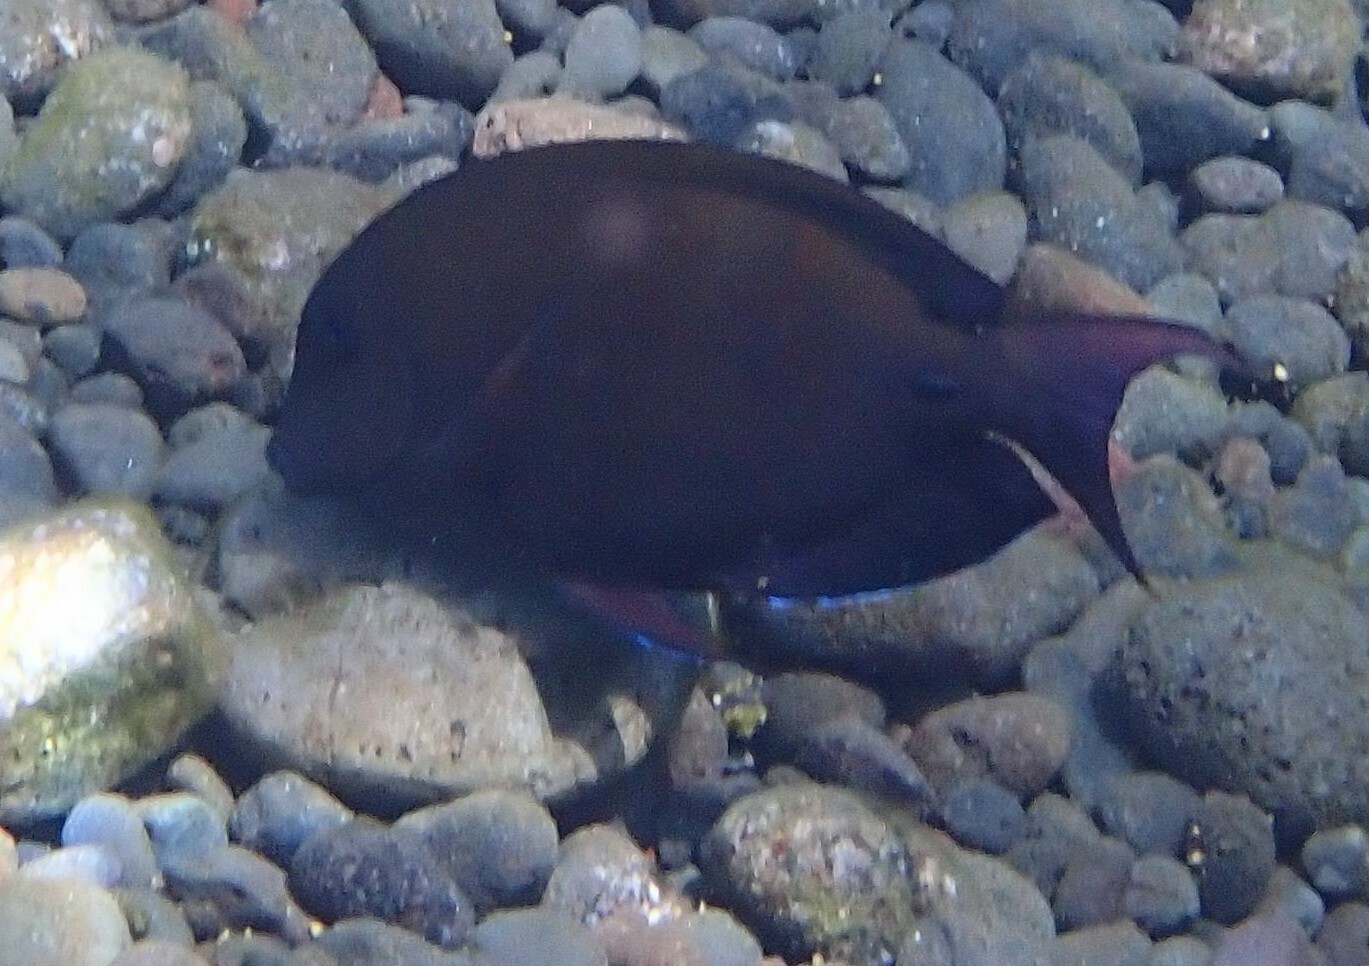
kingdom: Animalia
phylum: Chordata
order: Perciformes
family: Acanthuridae
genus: Acanthurus
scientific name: Acanthurus nigrofuscus
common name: Blackspot surgeonfish
